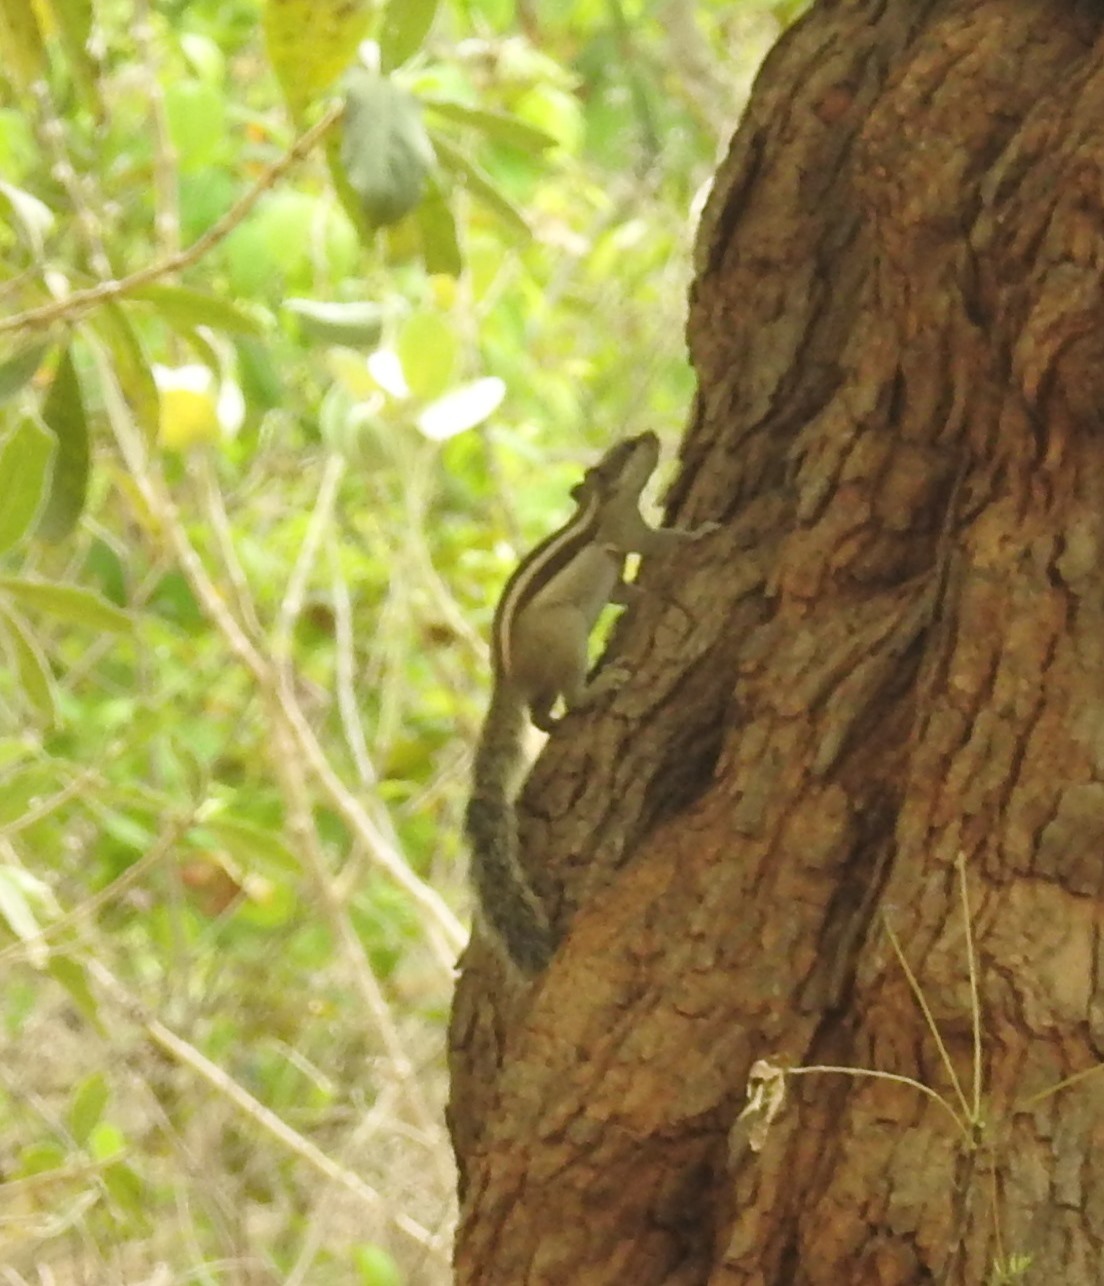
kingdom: Animalia
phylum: Chordata
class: Mammalia
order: Rodentia
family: Sciuridae
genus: Funambulus
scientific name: Funambulus pennantii
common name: Northern palm squirrel
